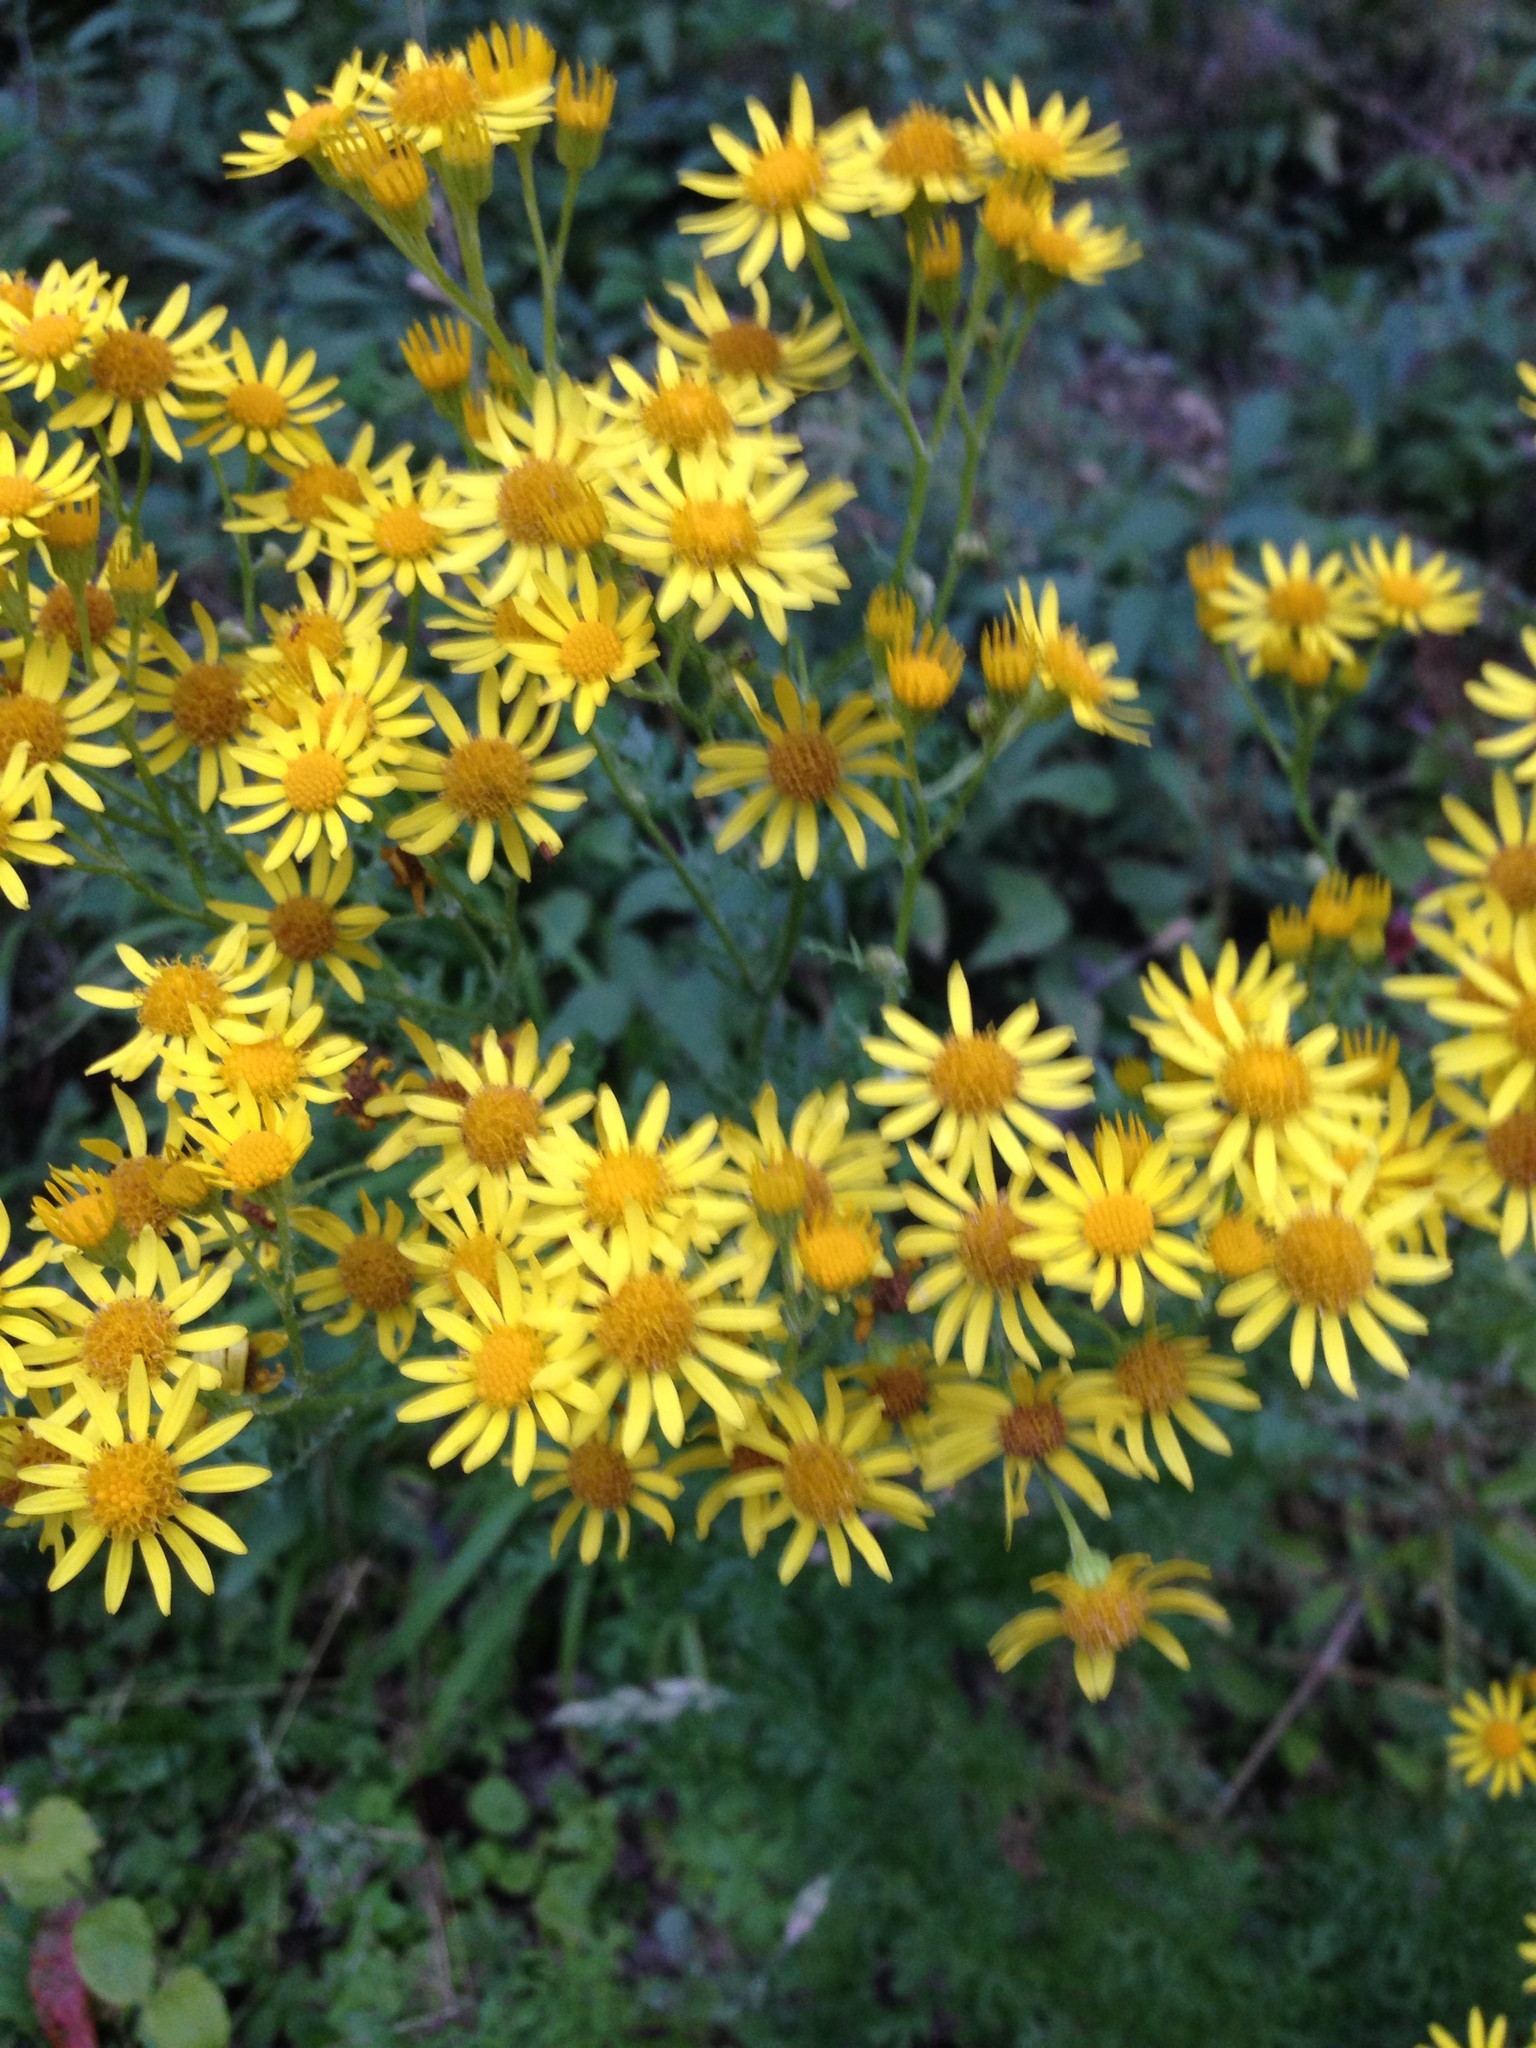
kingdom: Plantae
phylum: Tracheophyta
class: Magnoliopsida
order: Asterales
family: Asteraceae
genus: Jacobaea
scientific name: Jacobaea vulgaris
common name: Stinking willie
